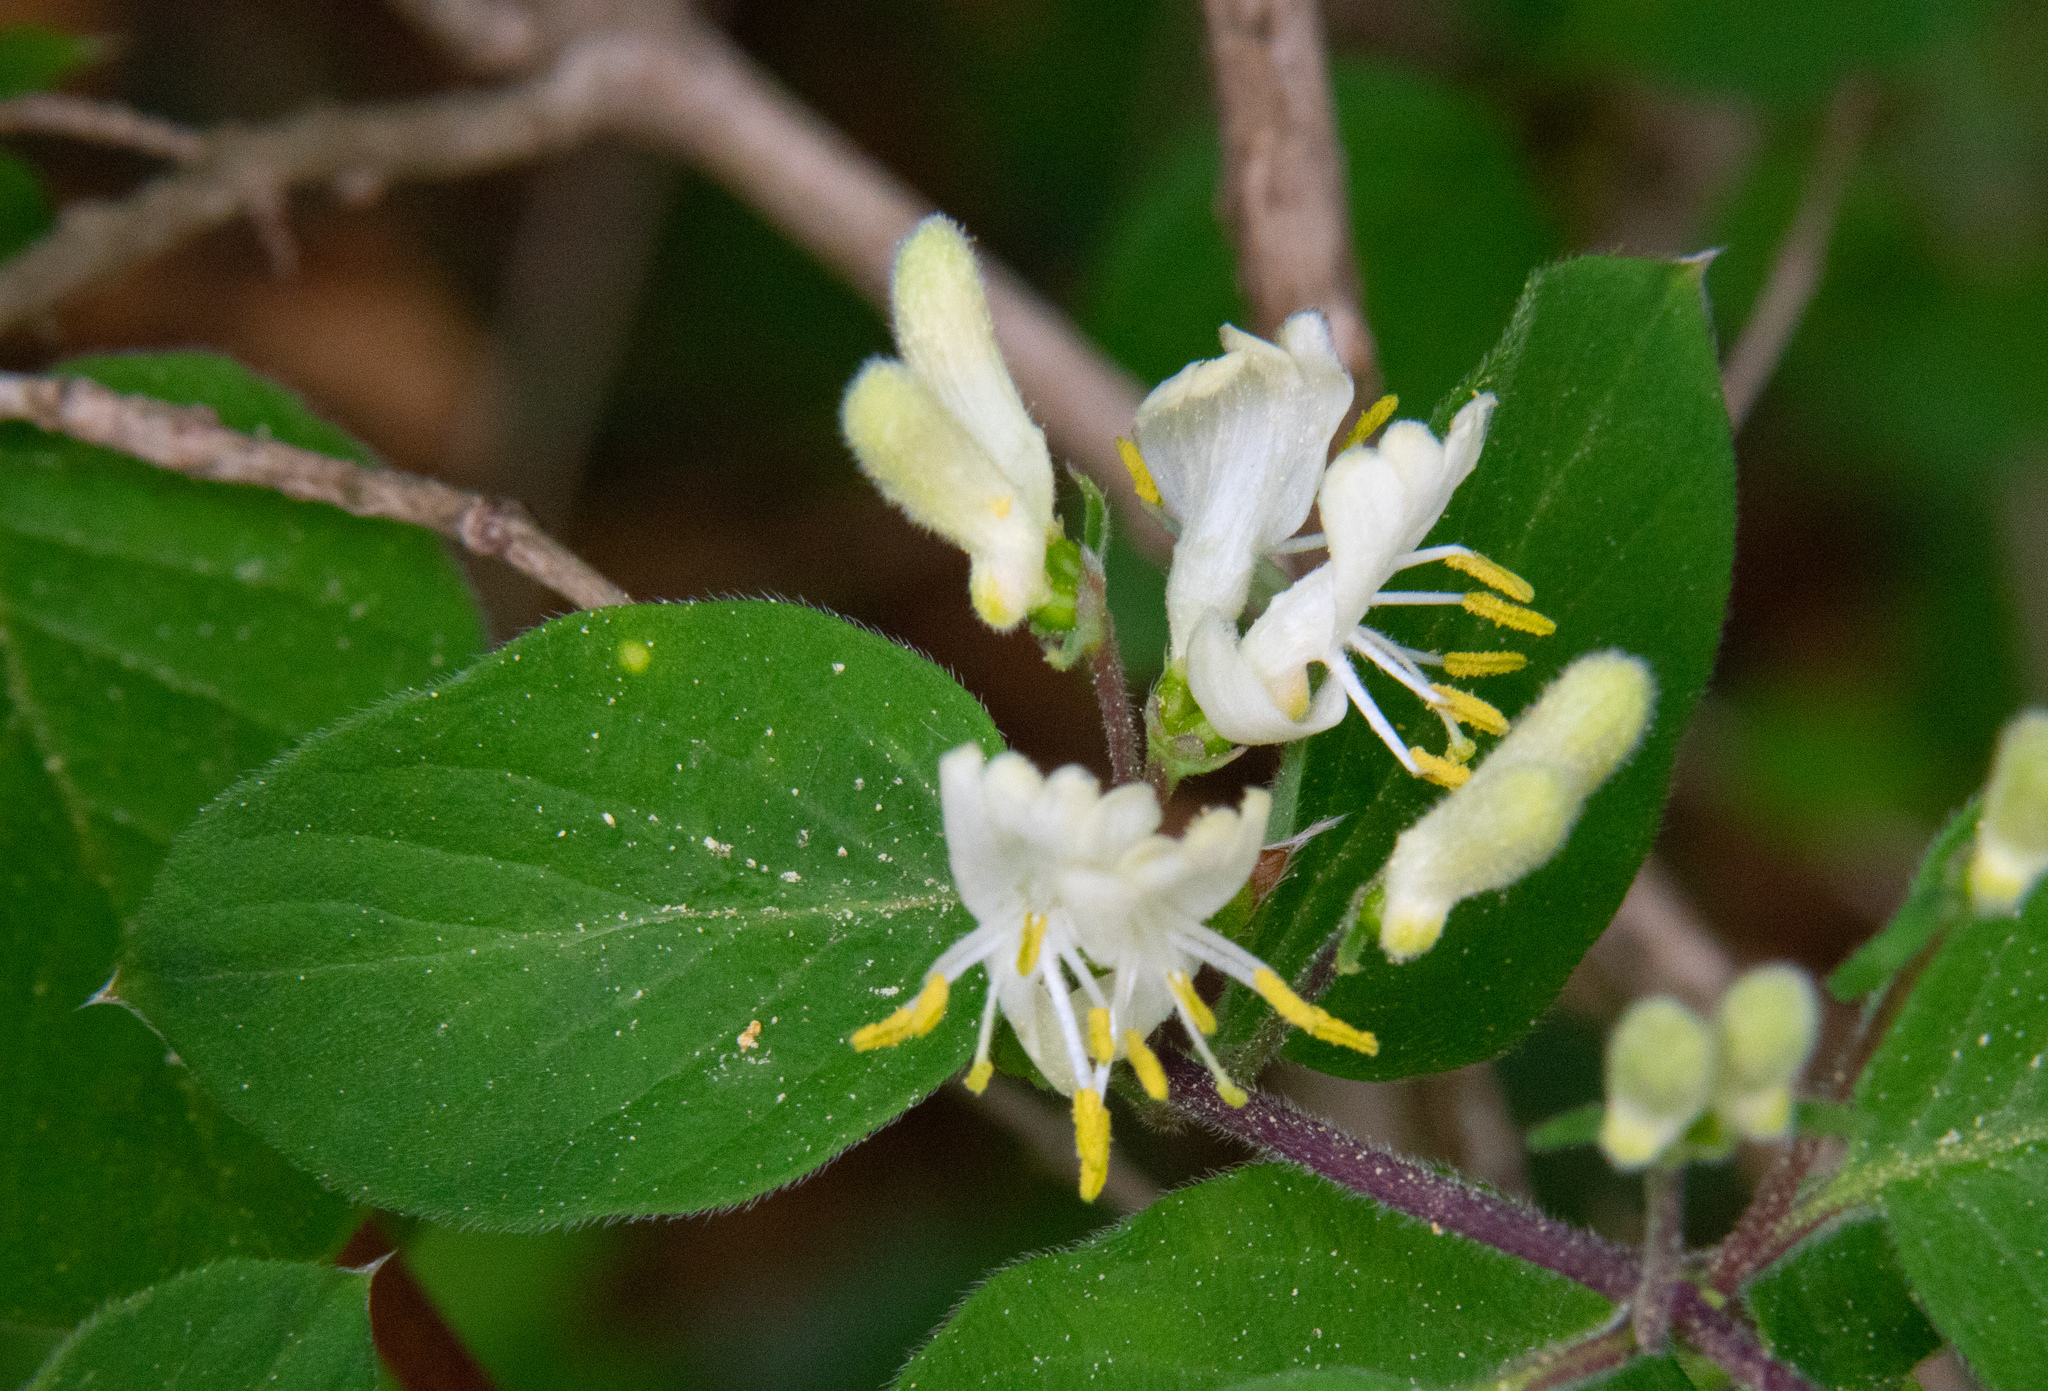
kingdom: Plantae
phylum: Tracheophyta
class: Magnoliopsida
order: Dipsacales
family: Caprifoliaceae
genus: Lonicera
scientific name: Lonicera xylosteum
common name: Fly honeysuckle
